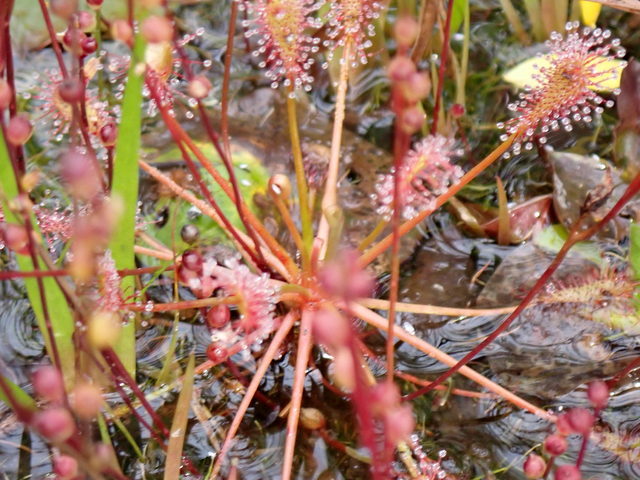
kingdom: Plantae
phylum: Tracheophyta
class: Magnoliopsida
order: Caryophyllales
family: Droseraceae
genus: Drosera
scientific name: Drosera intermedia
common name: Oblong-leaved sundew
